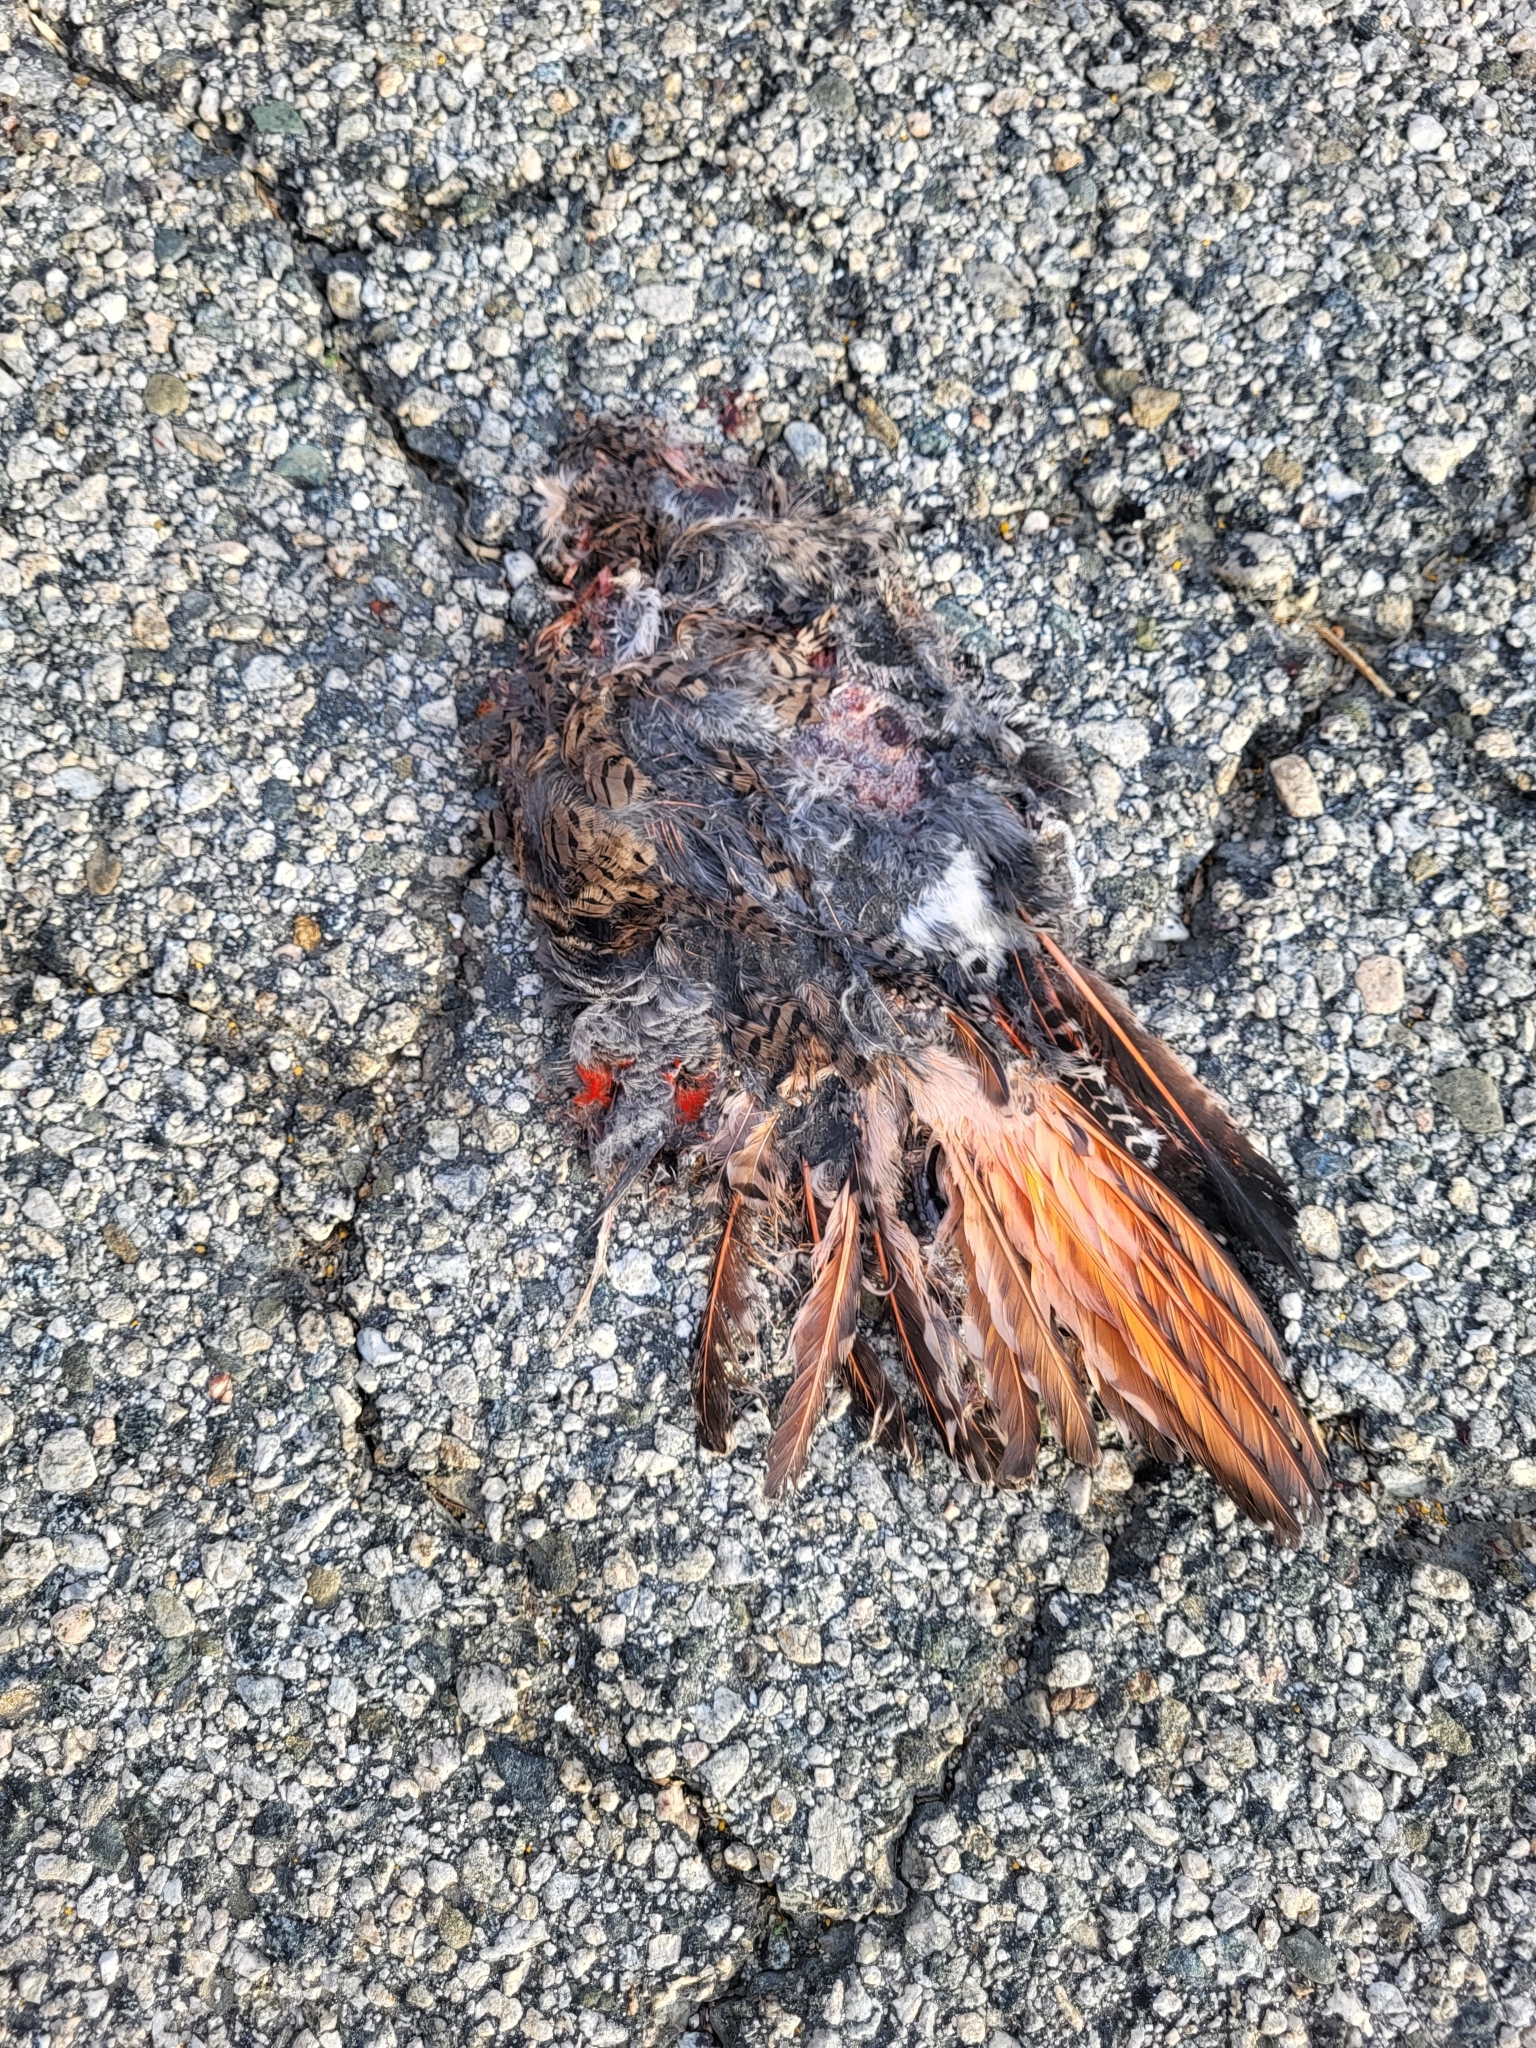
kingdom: Animalia
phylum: Chordata
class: Aves
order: Piciformes
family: Picidae
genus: Colaptes
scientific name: Colaptes auratus
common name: Northern flicker
